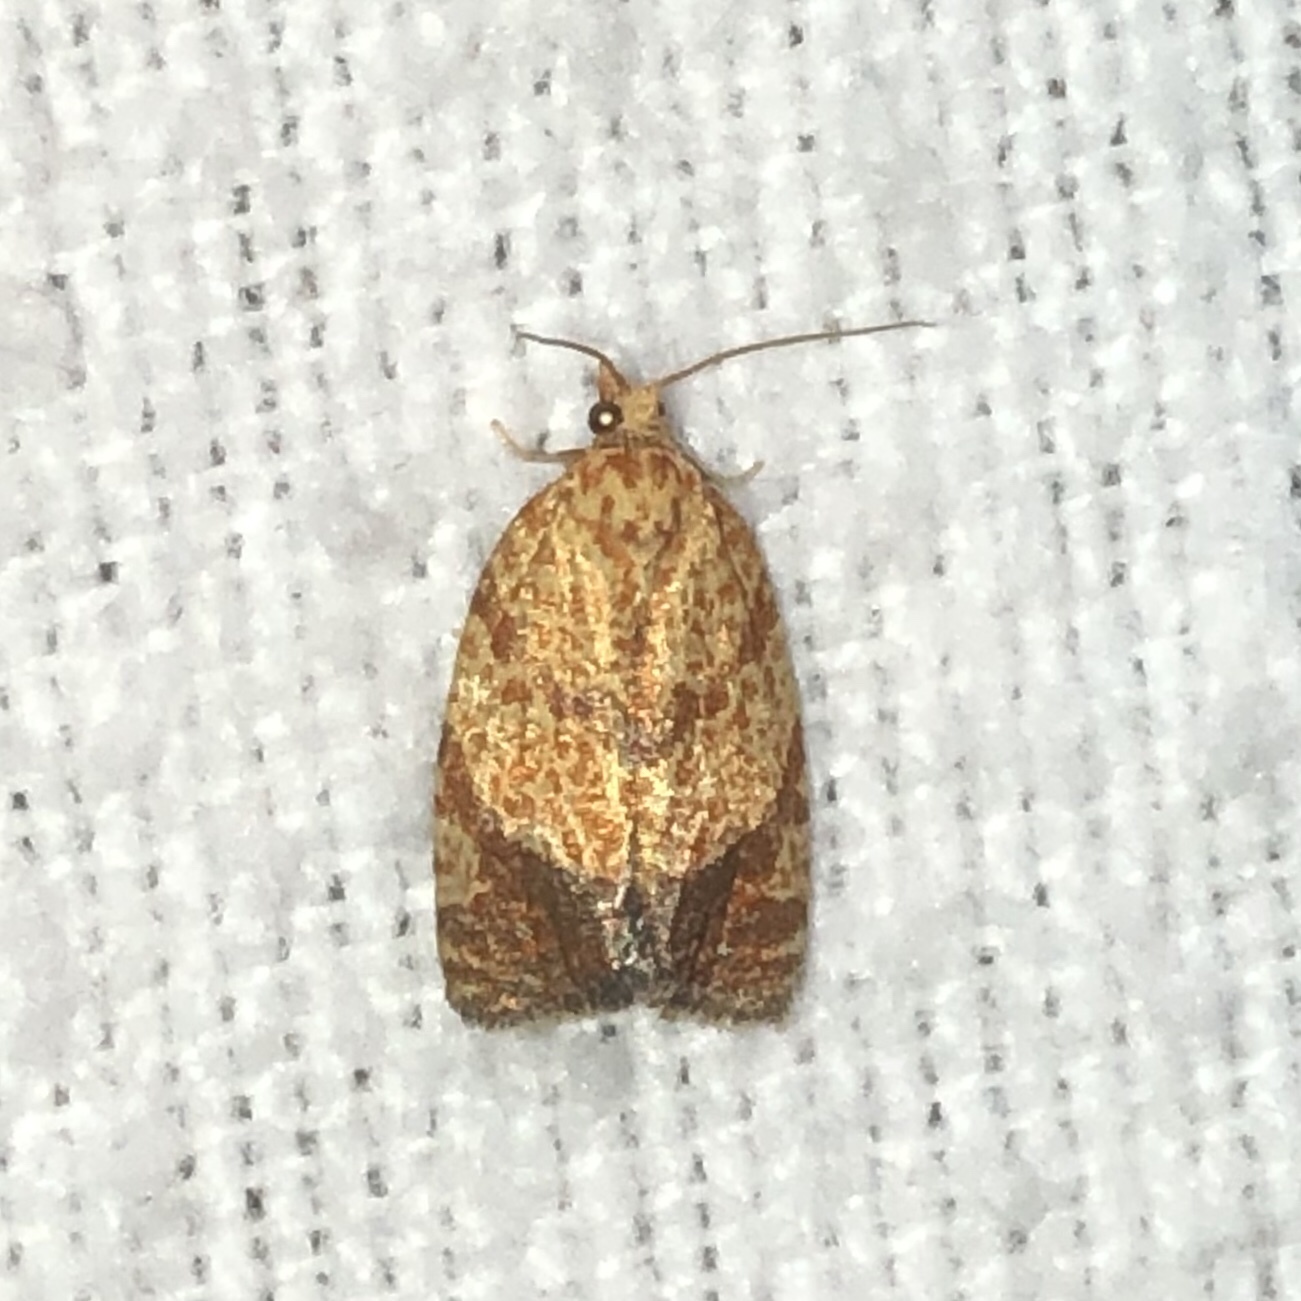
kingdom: Animalia
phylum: Arthropoda
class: Insecta
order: Lepidoptera
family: Tortricidae
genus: Argyrotaenia
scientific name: Argyrotaenia quadrifasciana
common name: Four-lined leafroller moth
